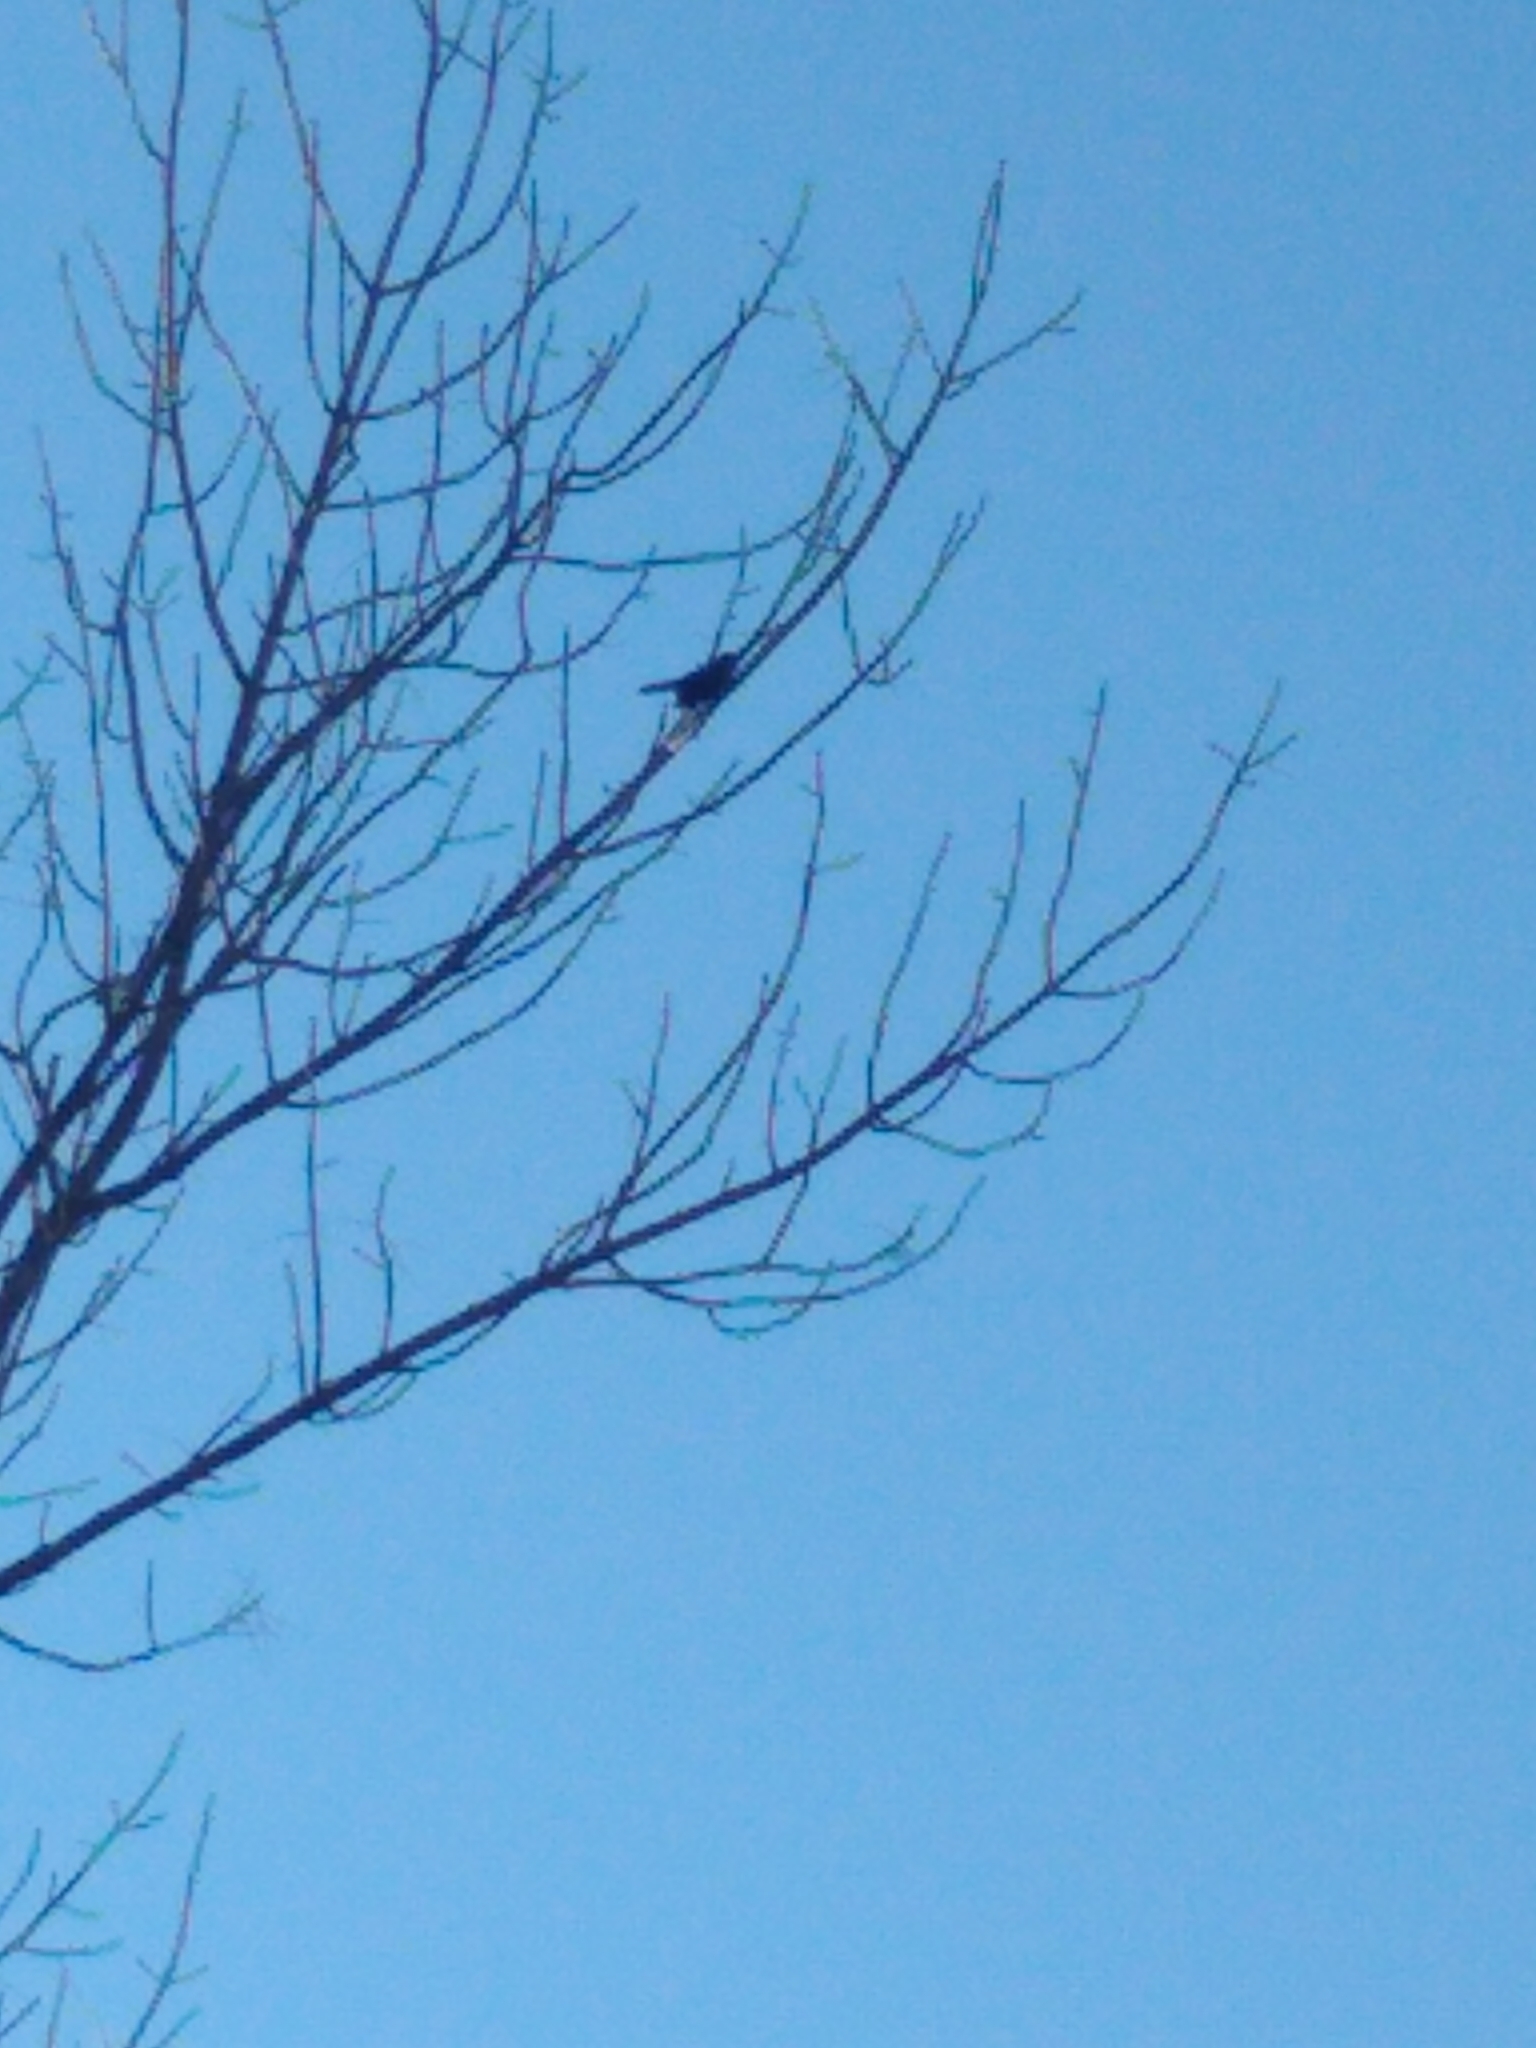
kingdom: Animalia
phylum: Chordata
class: Aves
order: Passeriformes
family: Icteridae
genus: Quiscalus
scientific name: Quiscalus quiscula
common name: Common grackle
